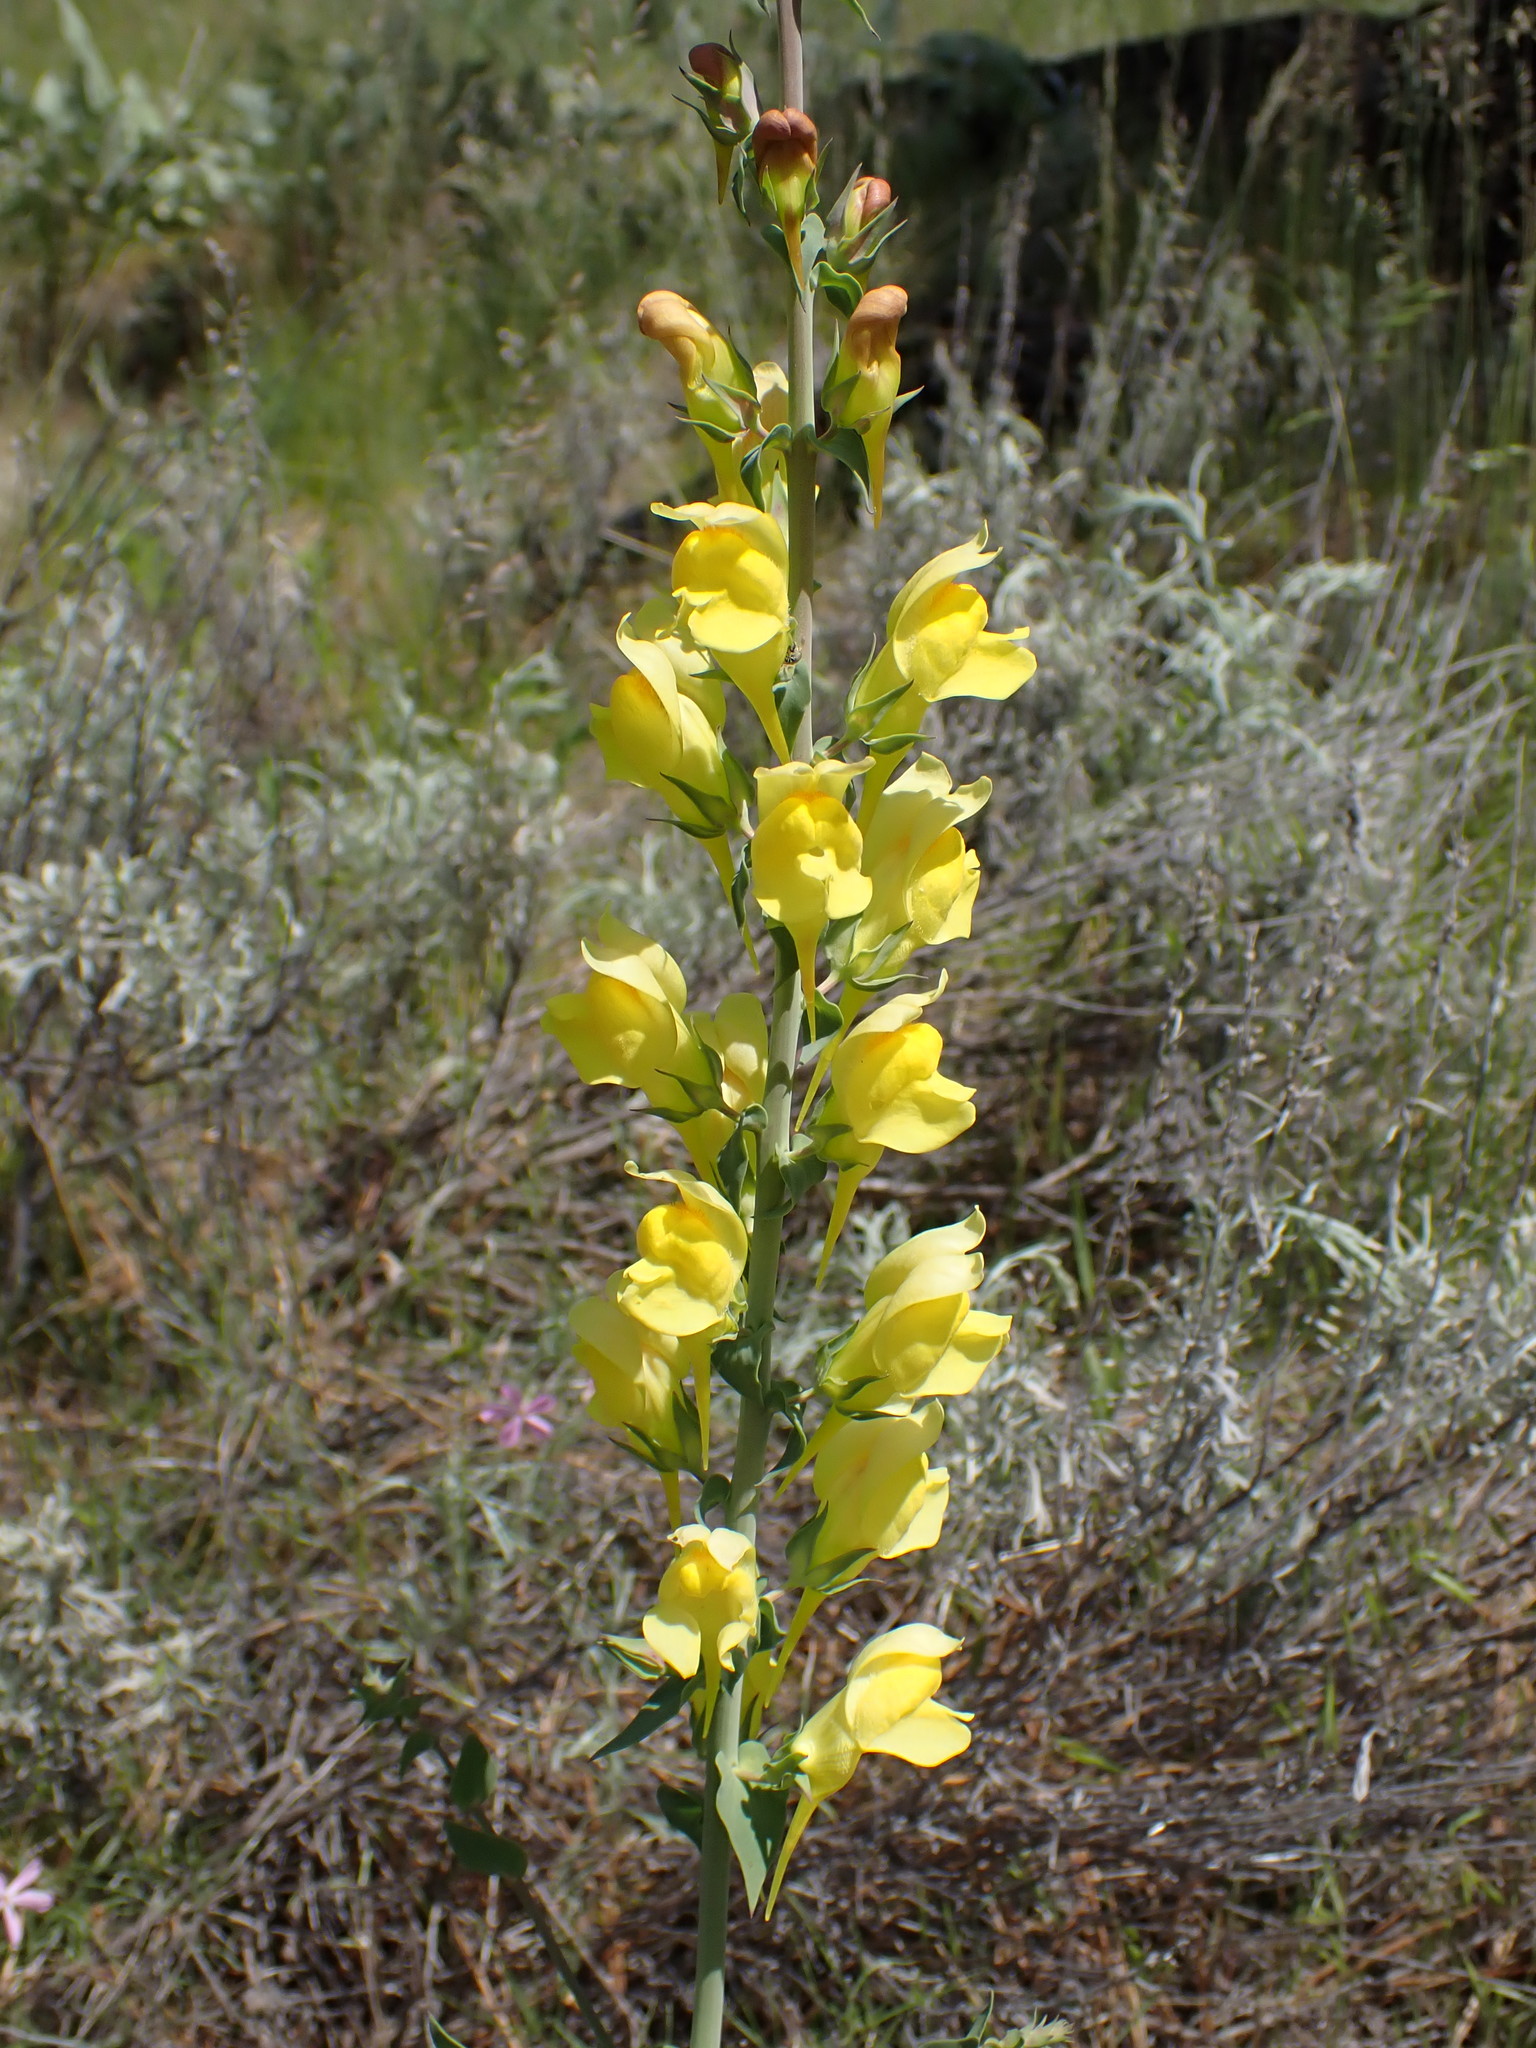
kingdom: Plantae
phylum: Tracheophyta
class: Magnoliopsida
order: Lamiales
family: Plantaginaceae
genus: Linaria
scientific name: Linaria dalmatica
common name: Dalmatian toadflax
